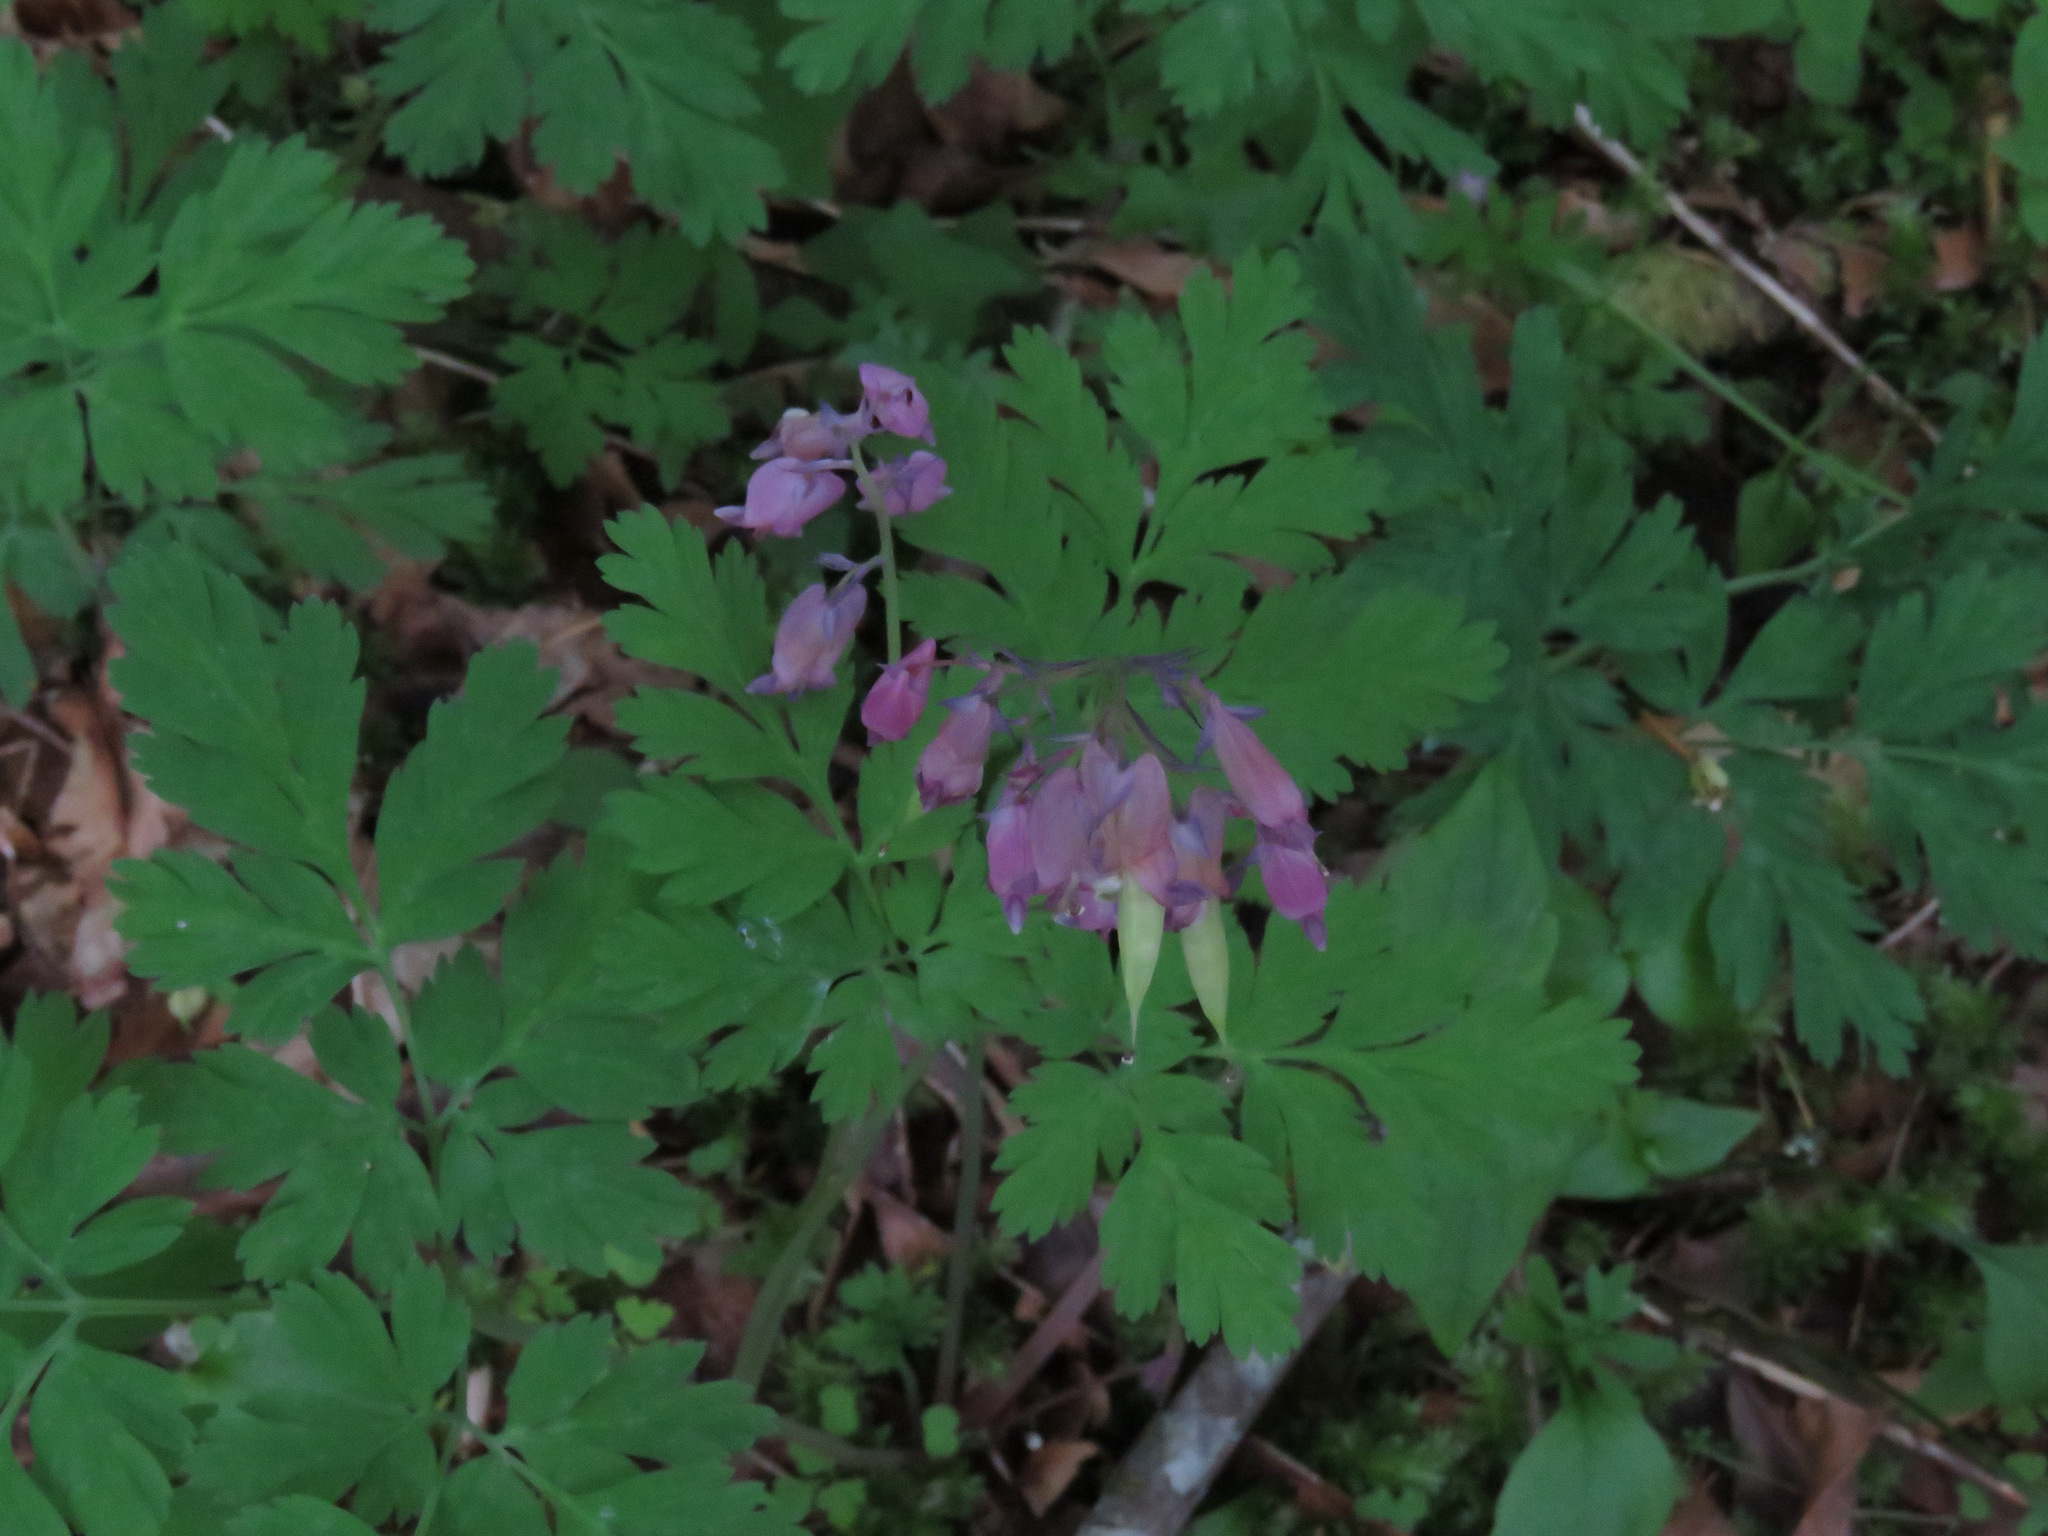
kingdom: Plantae
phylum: Tracheophyta
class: Magnoliopsida
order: Ranunculales
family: Papaveraceae
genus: Dicentra
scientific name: Dicentra formosa
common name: Bleeding-heart
